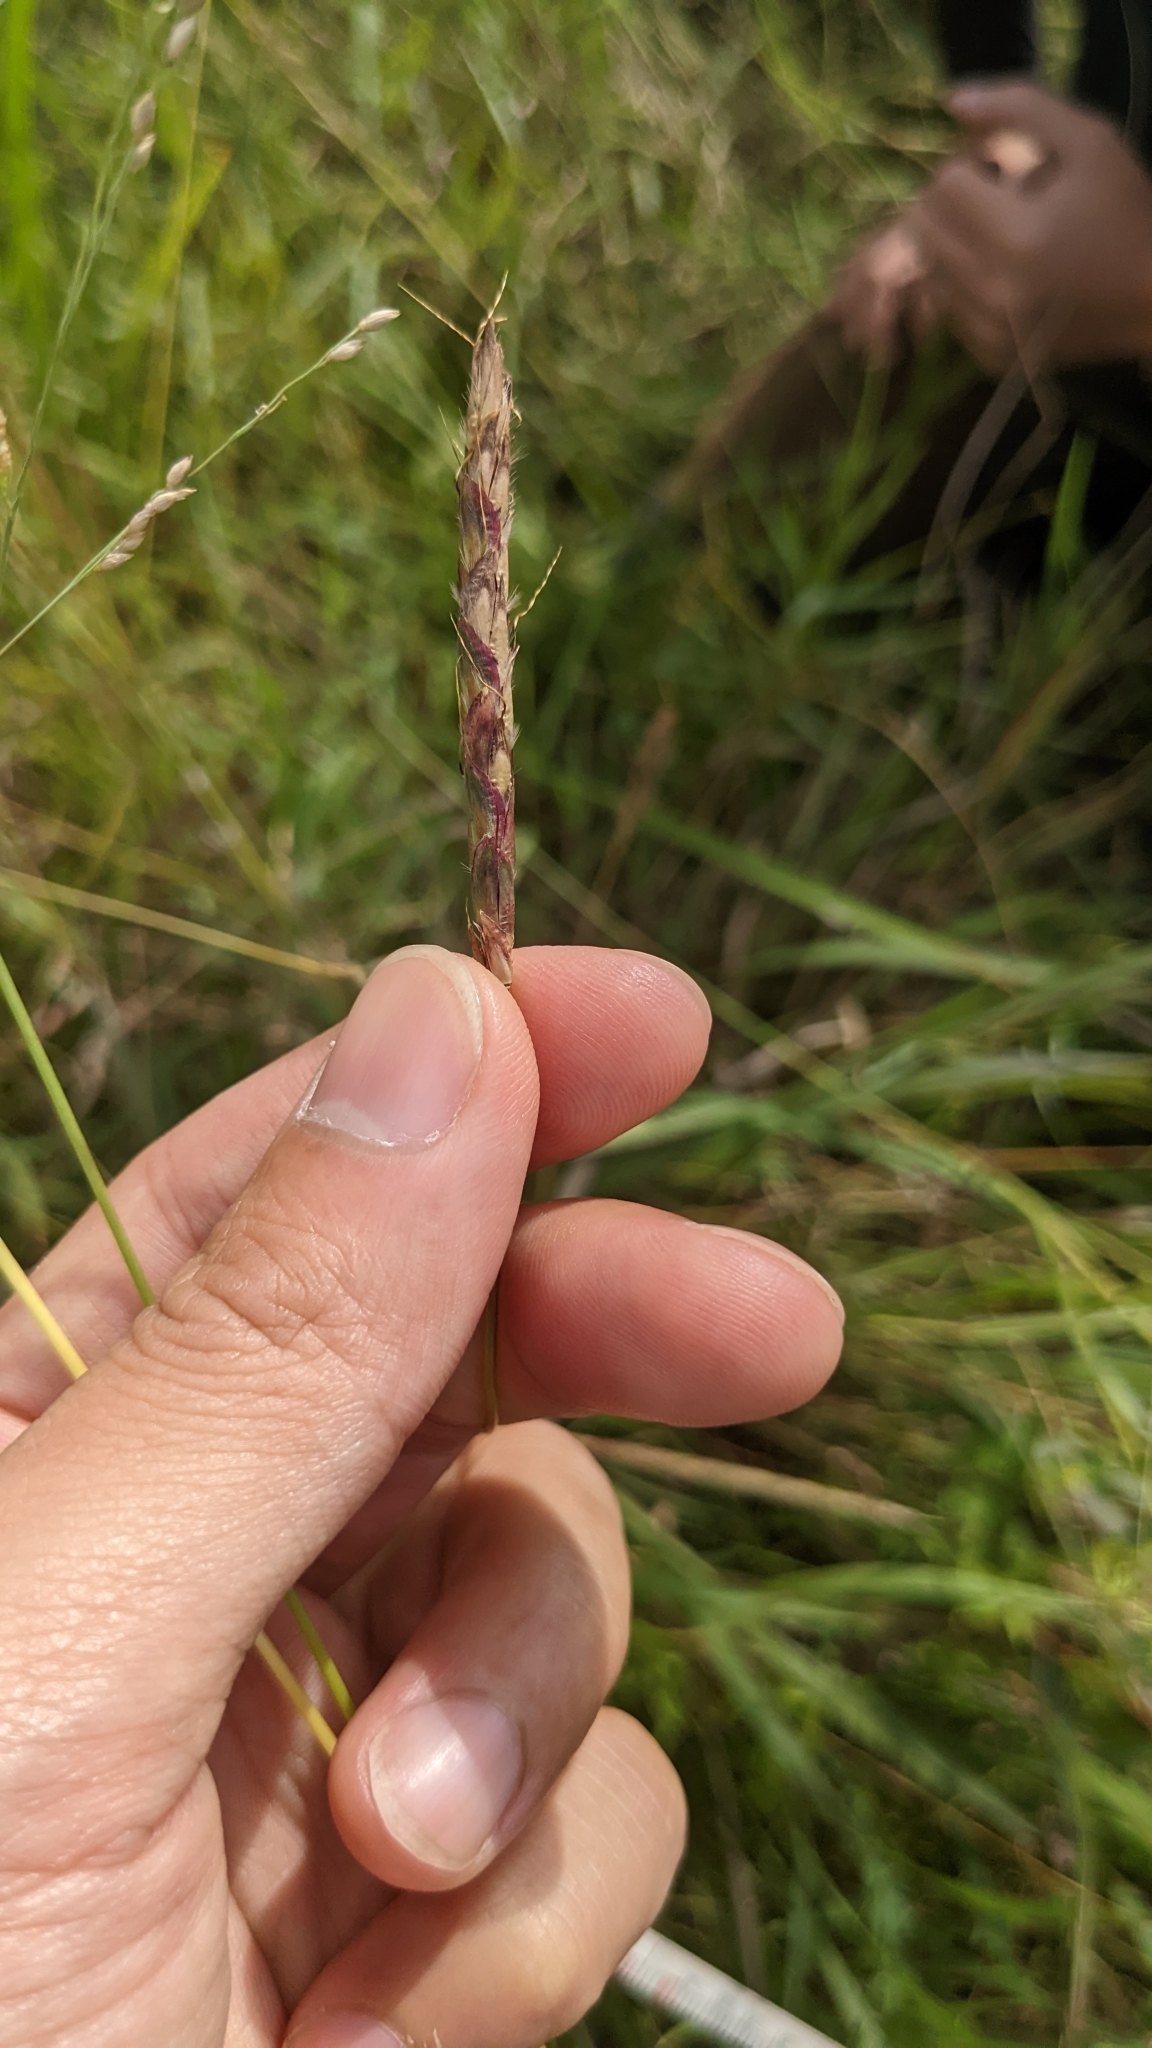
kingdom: Plantae
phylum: Tracheophyta
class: Liliopsida
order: Poales
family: Poaceae
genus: Ischaemum
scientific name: Ischaemum barbatum
